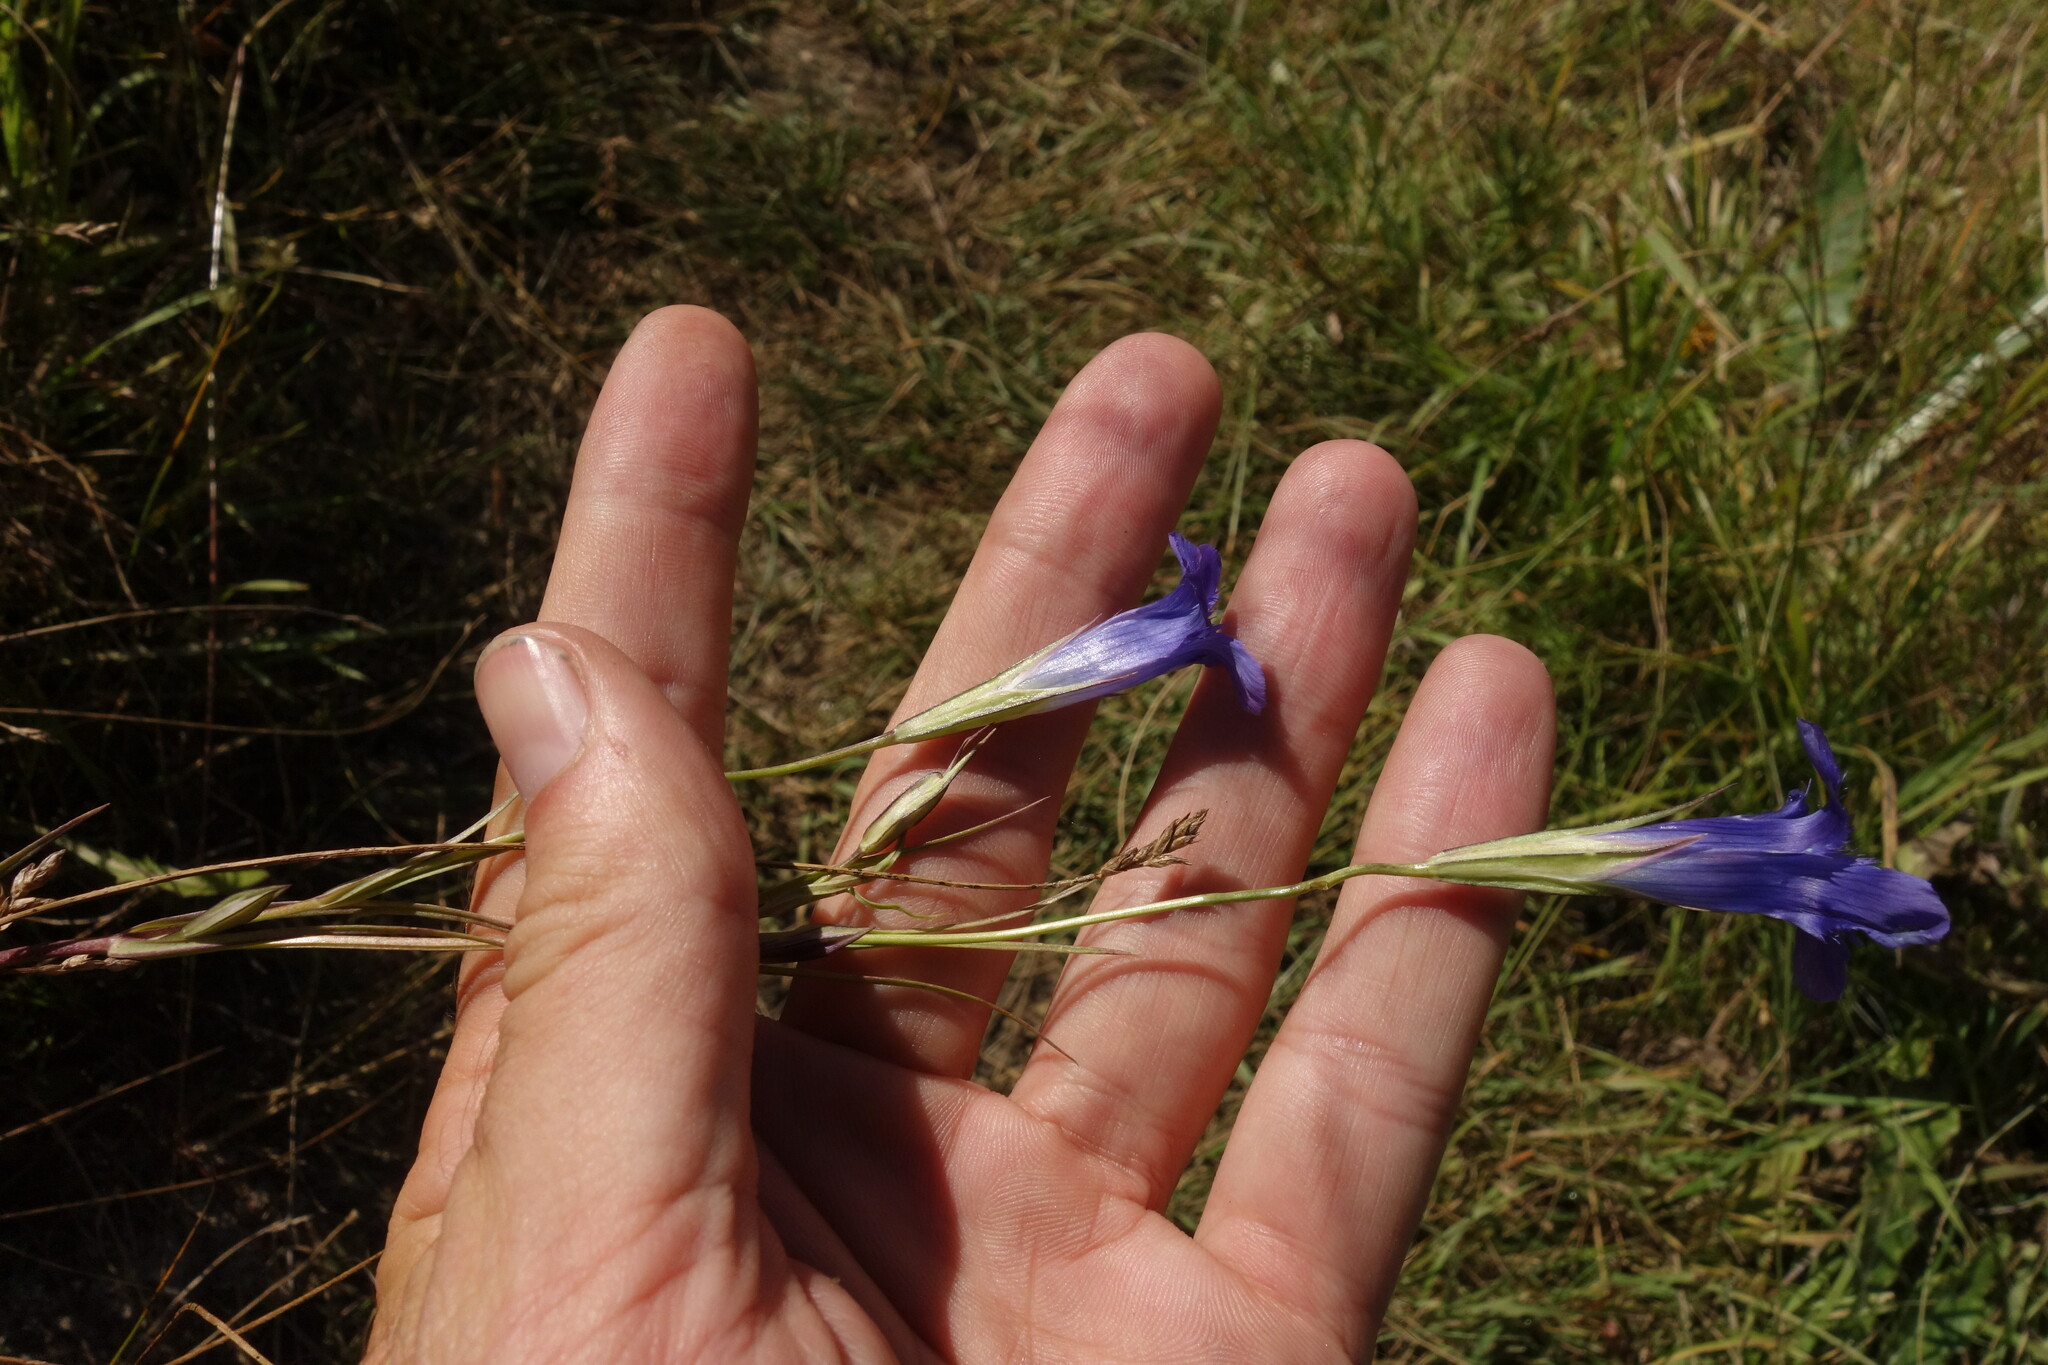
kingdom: Plantae
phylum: Tracheophyta
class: Magnoliopsida
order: Gentianales
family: Gentianaceae
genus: Gentianopsis
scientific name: Gentianopsis barbata
